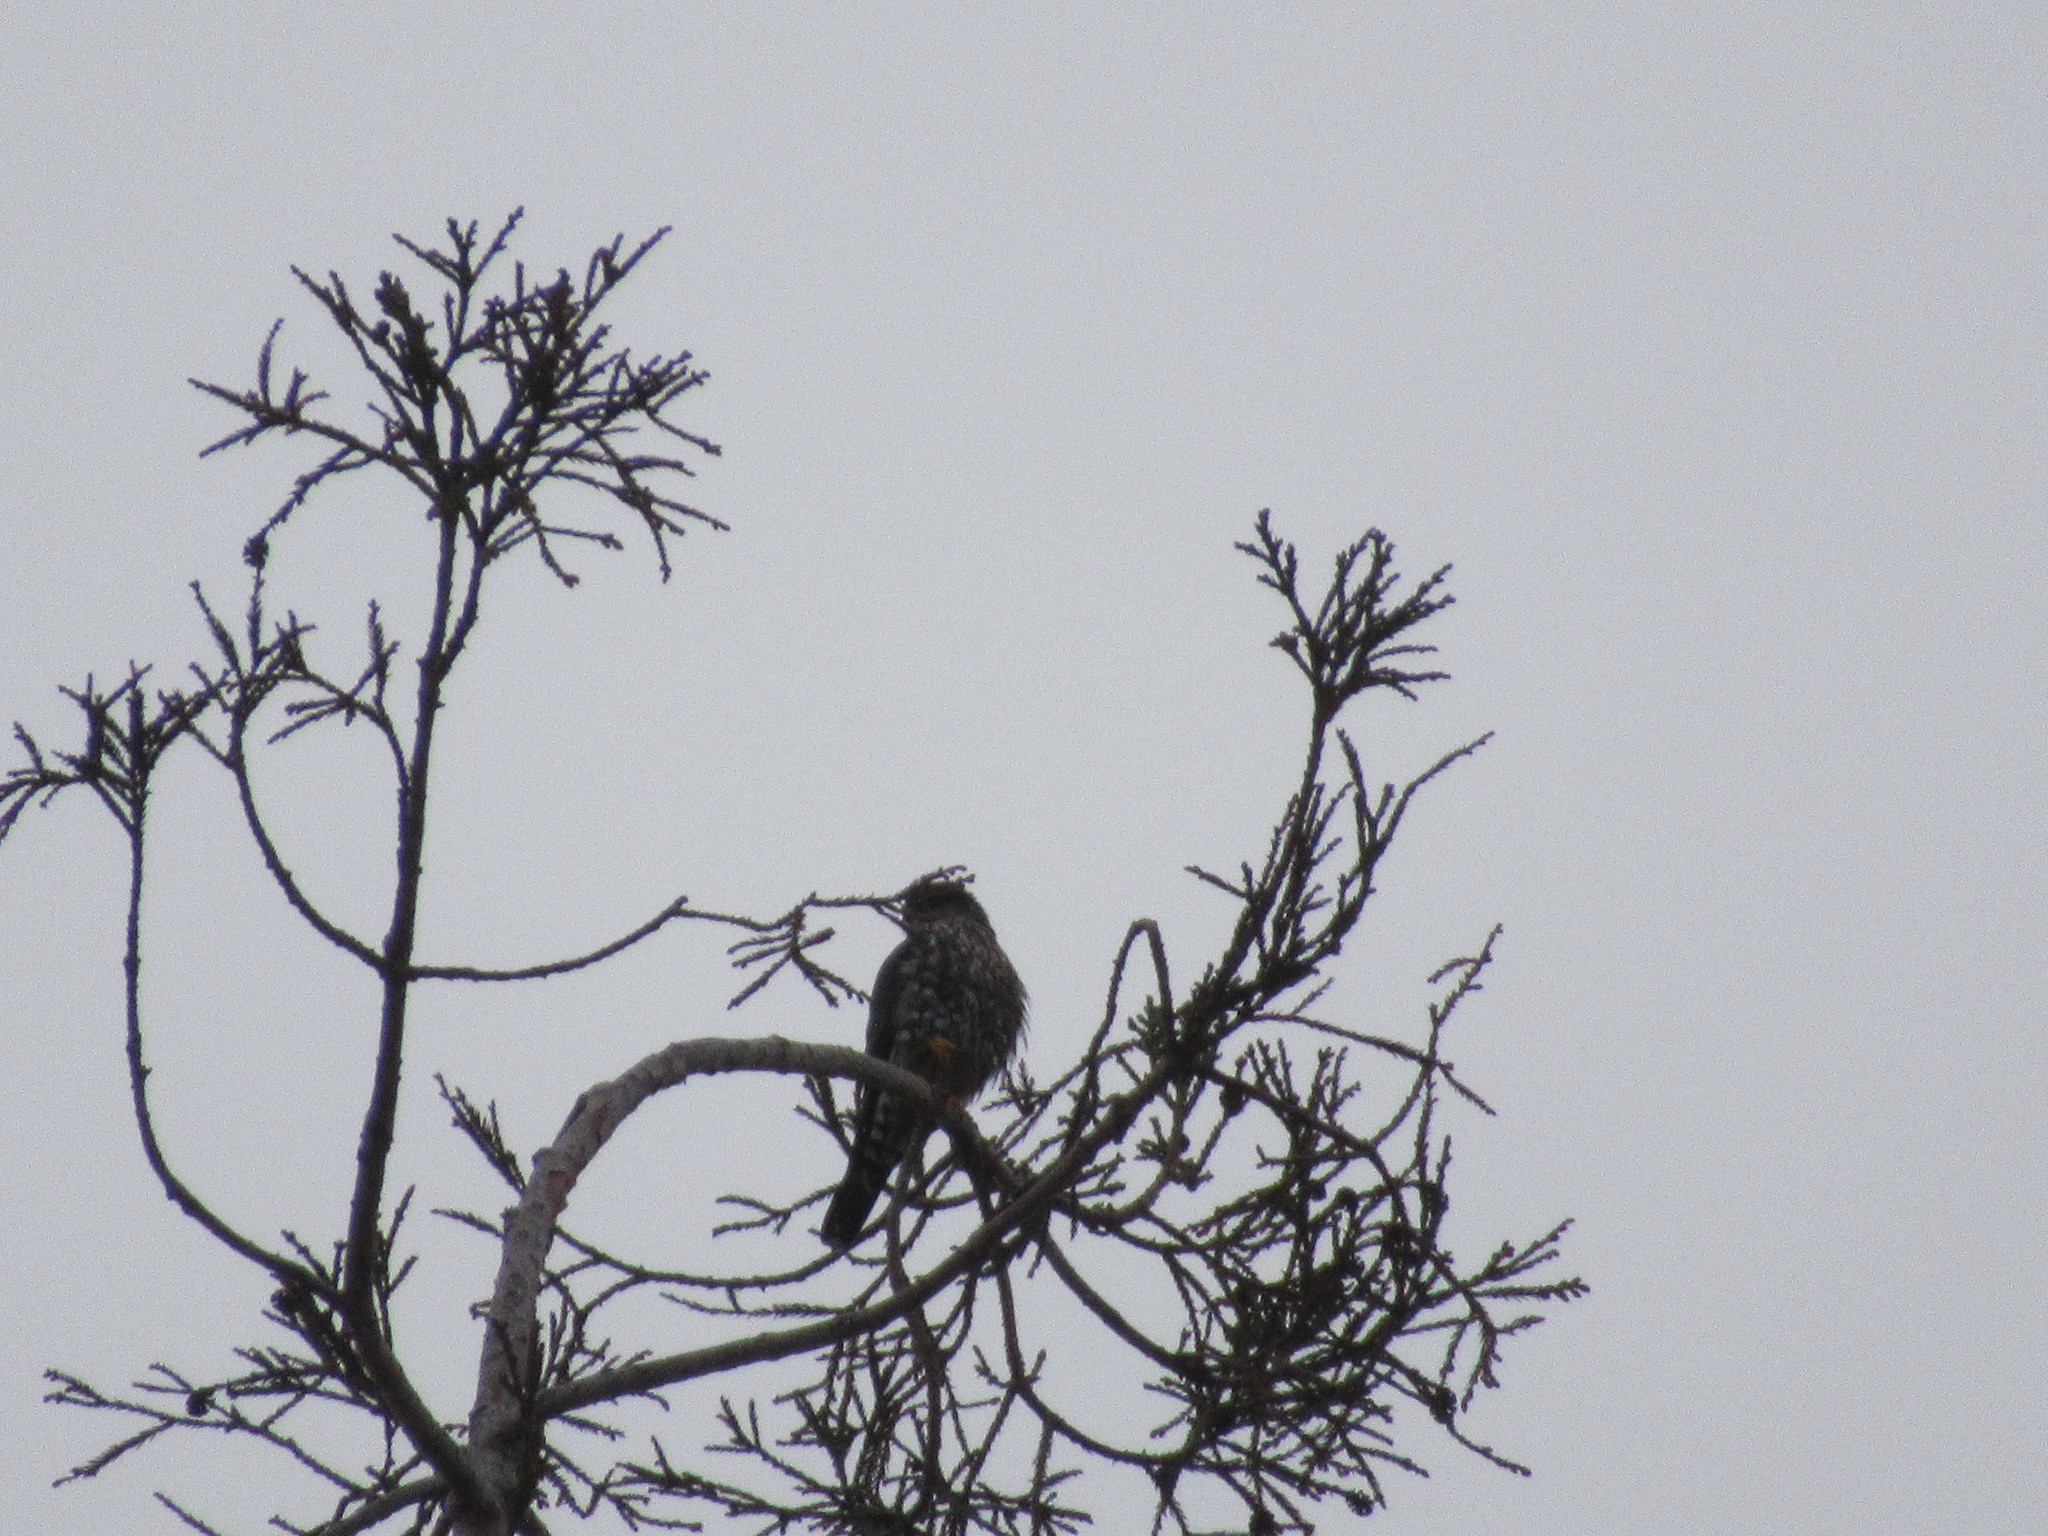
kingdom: Animalia
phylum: Chordata
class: Aves
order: Falconiformes
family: Falconidae
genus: Falco
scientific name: Falco columbarius
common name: Merlin
